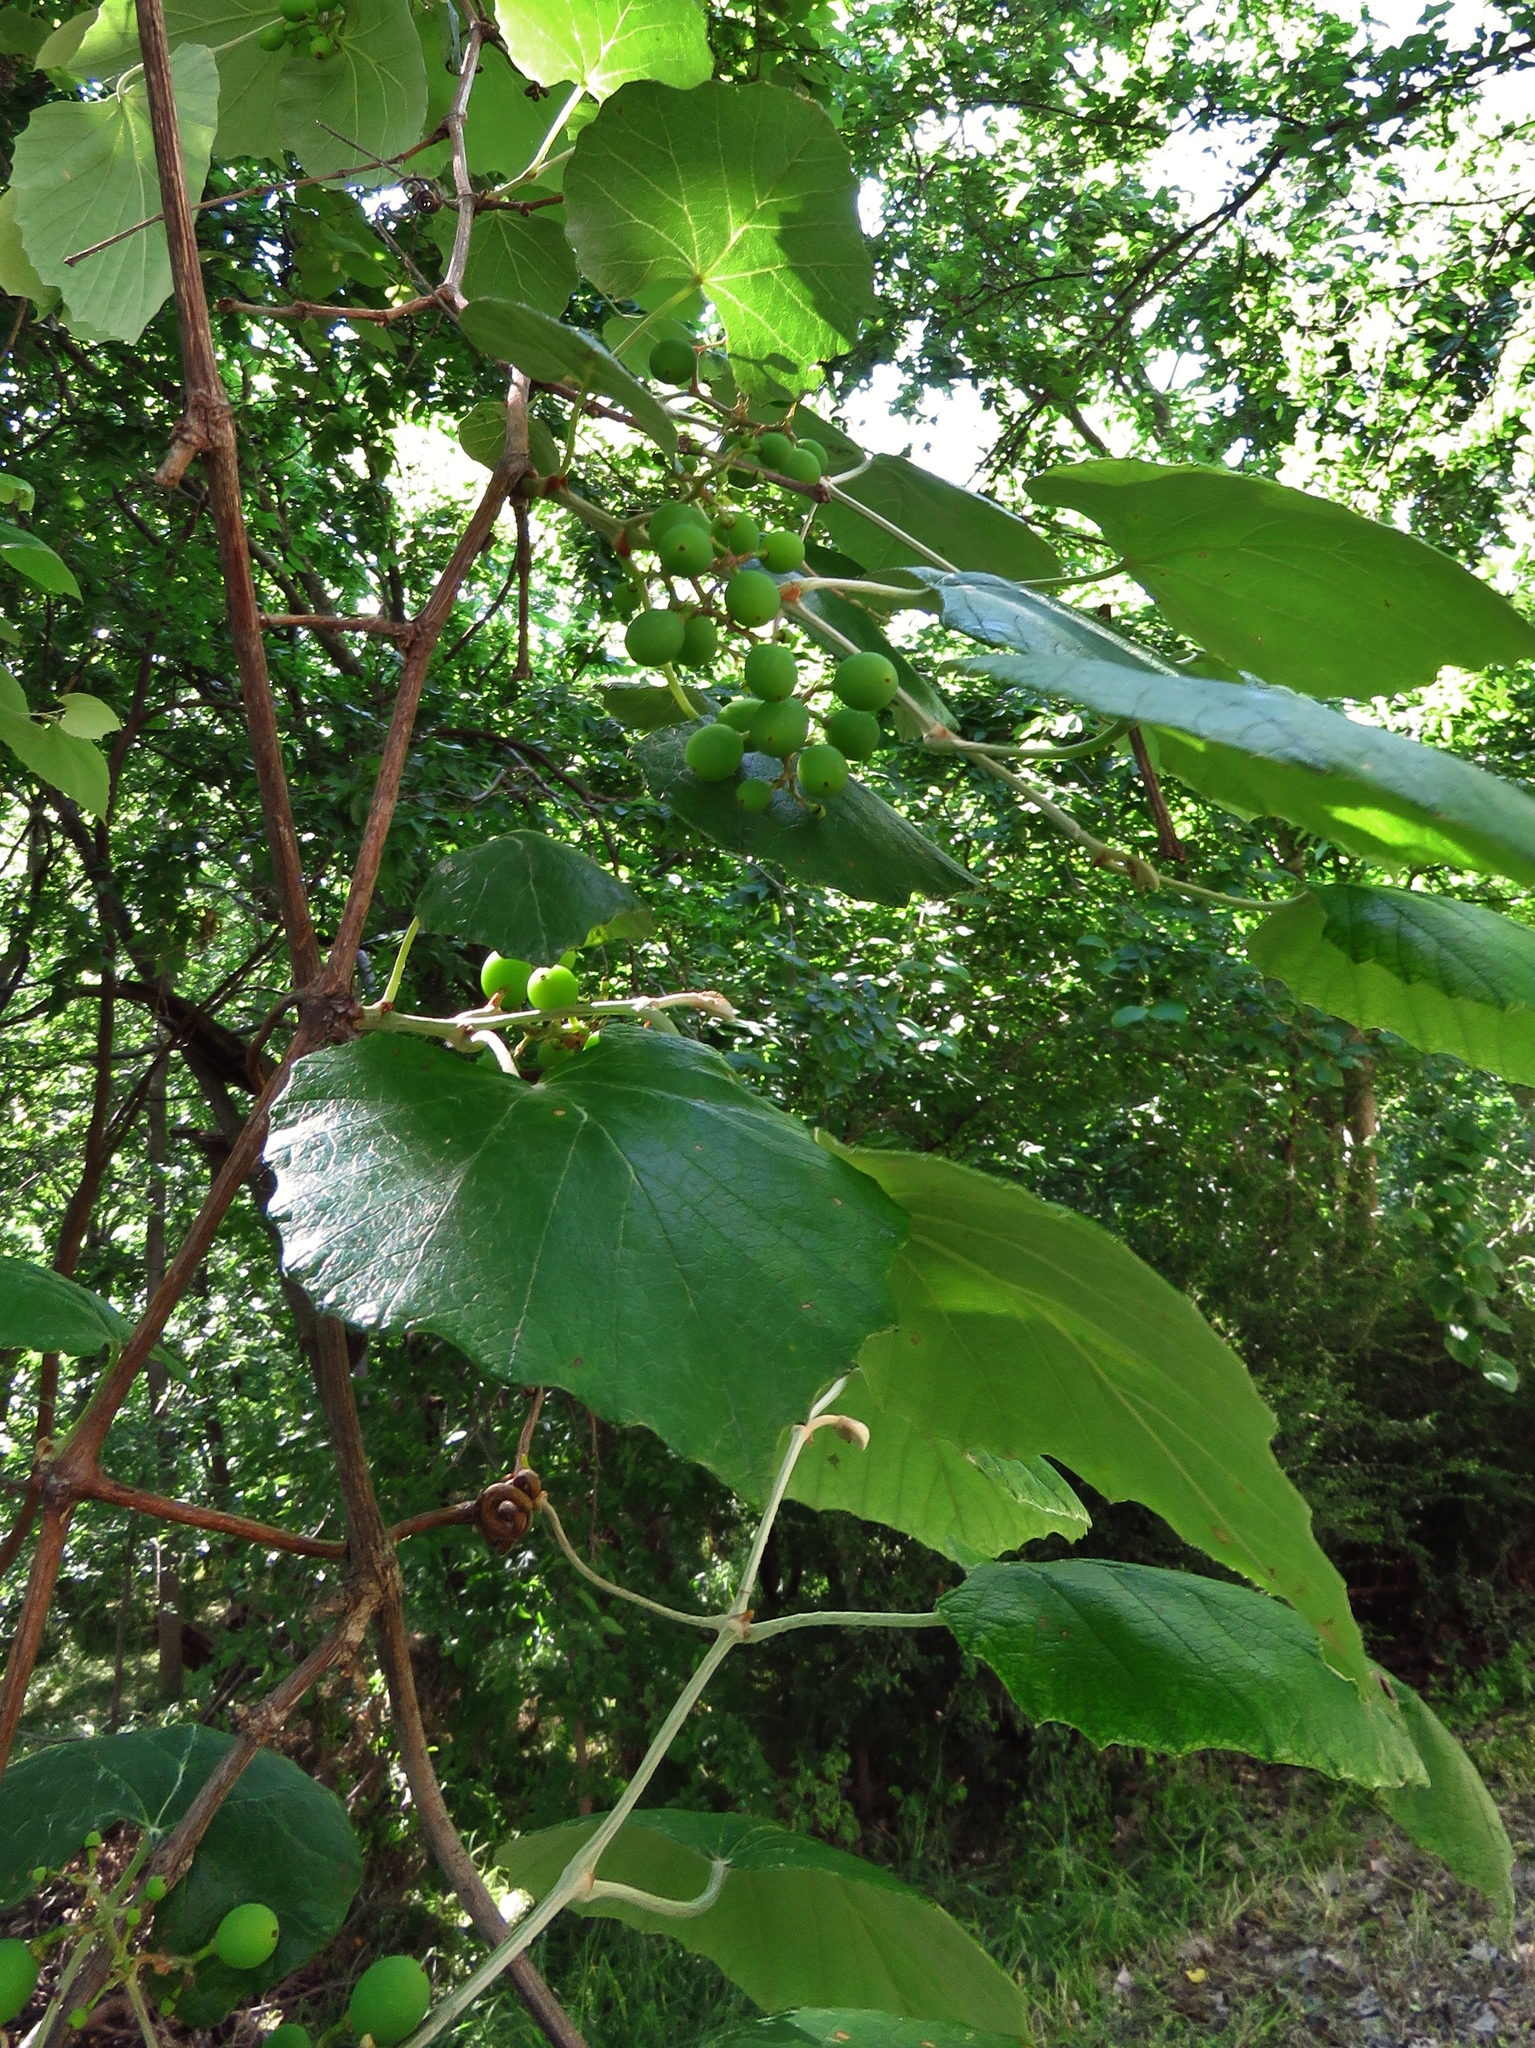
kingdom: Plantae
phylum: Tracheophyta
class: Magnoliopsida
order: Vitales
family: Vitaceae
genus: Vitis
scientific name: Vitis mustangensis
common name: Mustang grape
